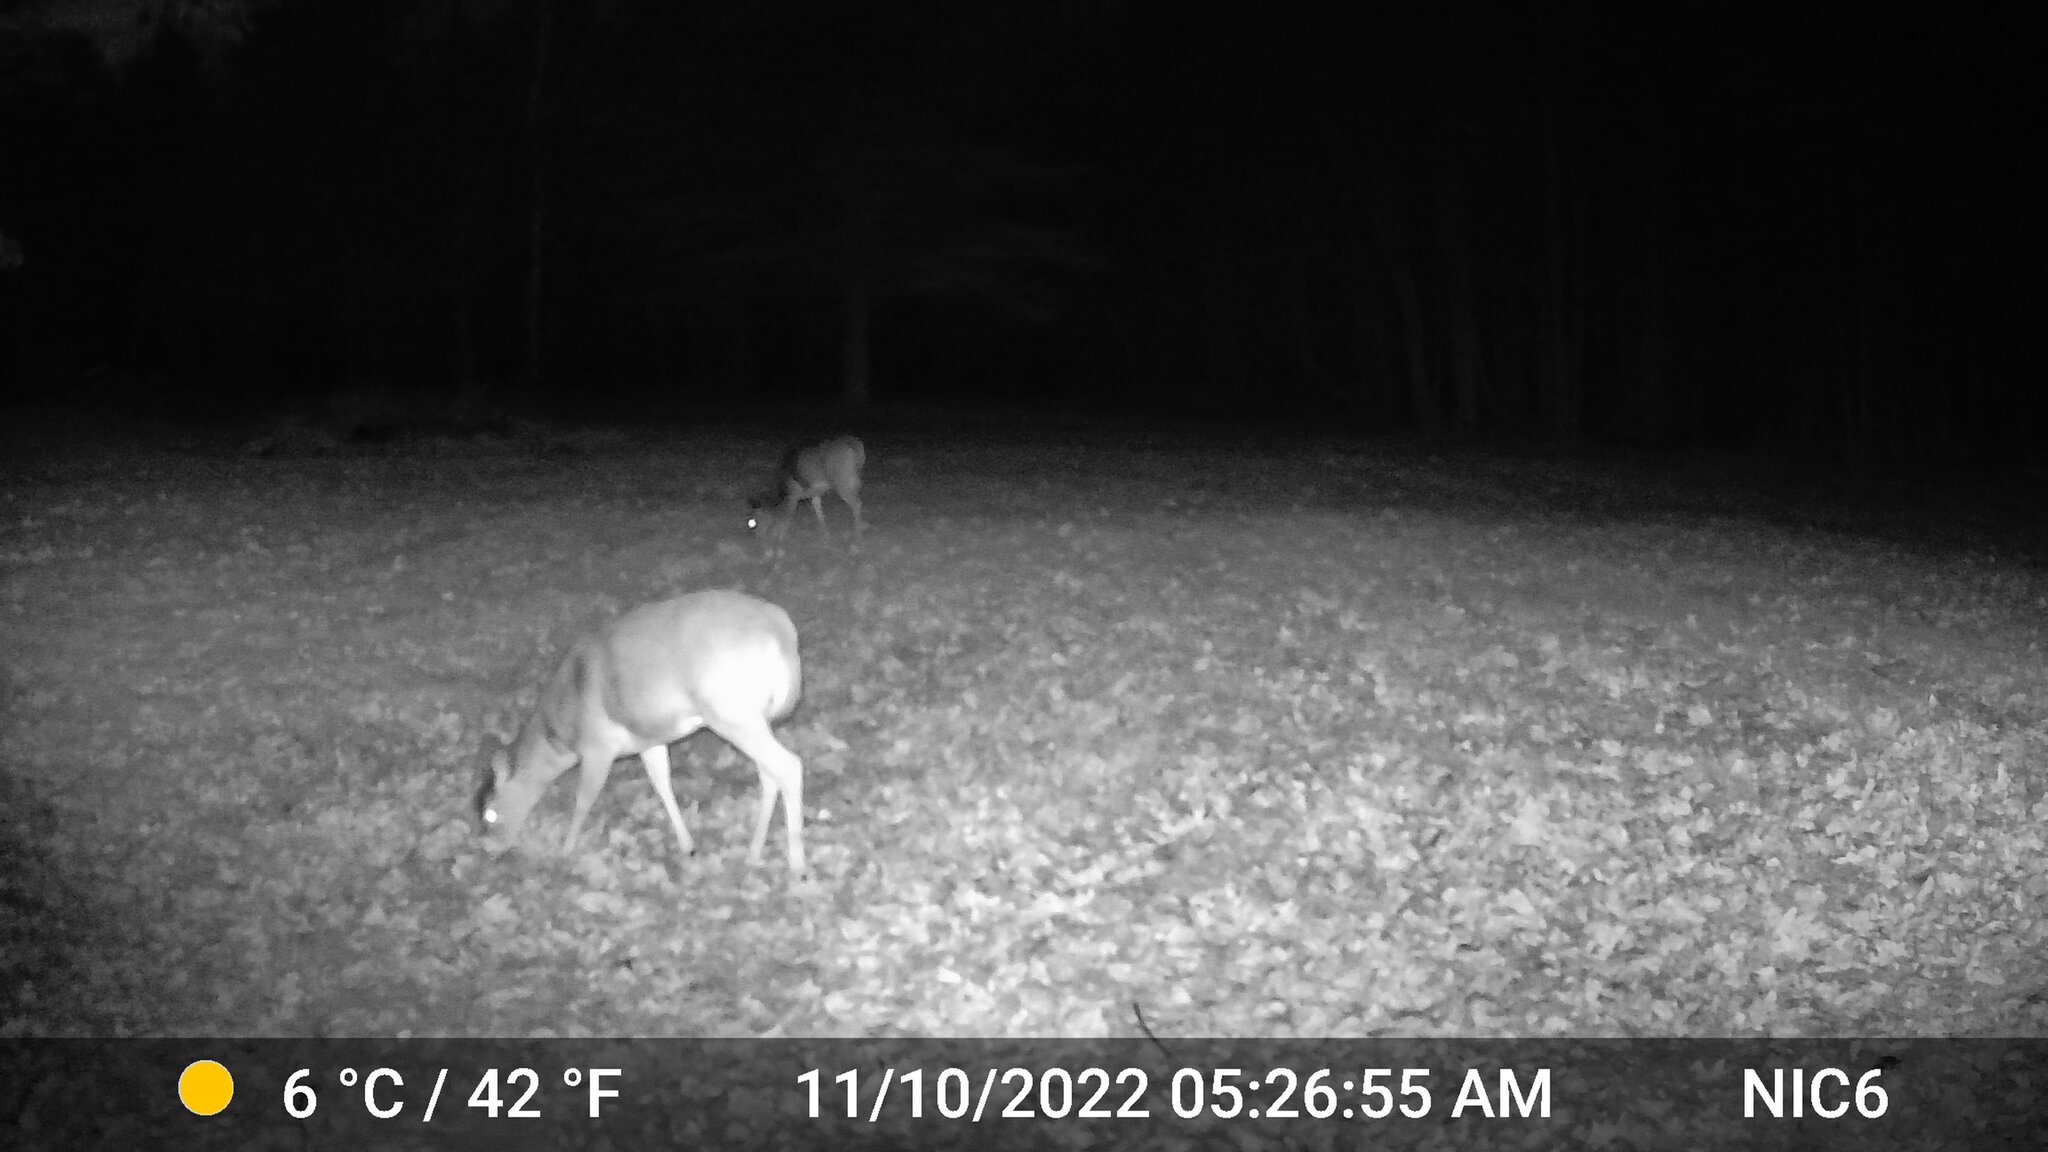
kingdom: Animalia
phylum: Chordata
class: Mammalia
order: Artiodactyla
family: Cervidae
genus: Odocoileus
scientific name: Odocoileus virginianus
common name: White-tailed deer
